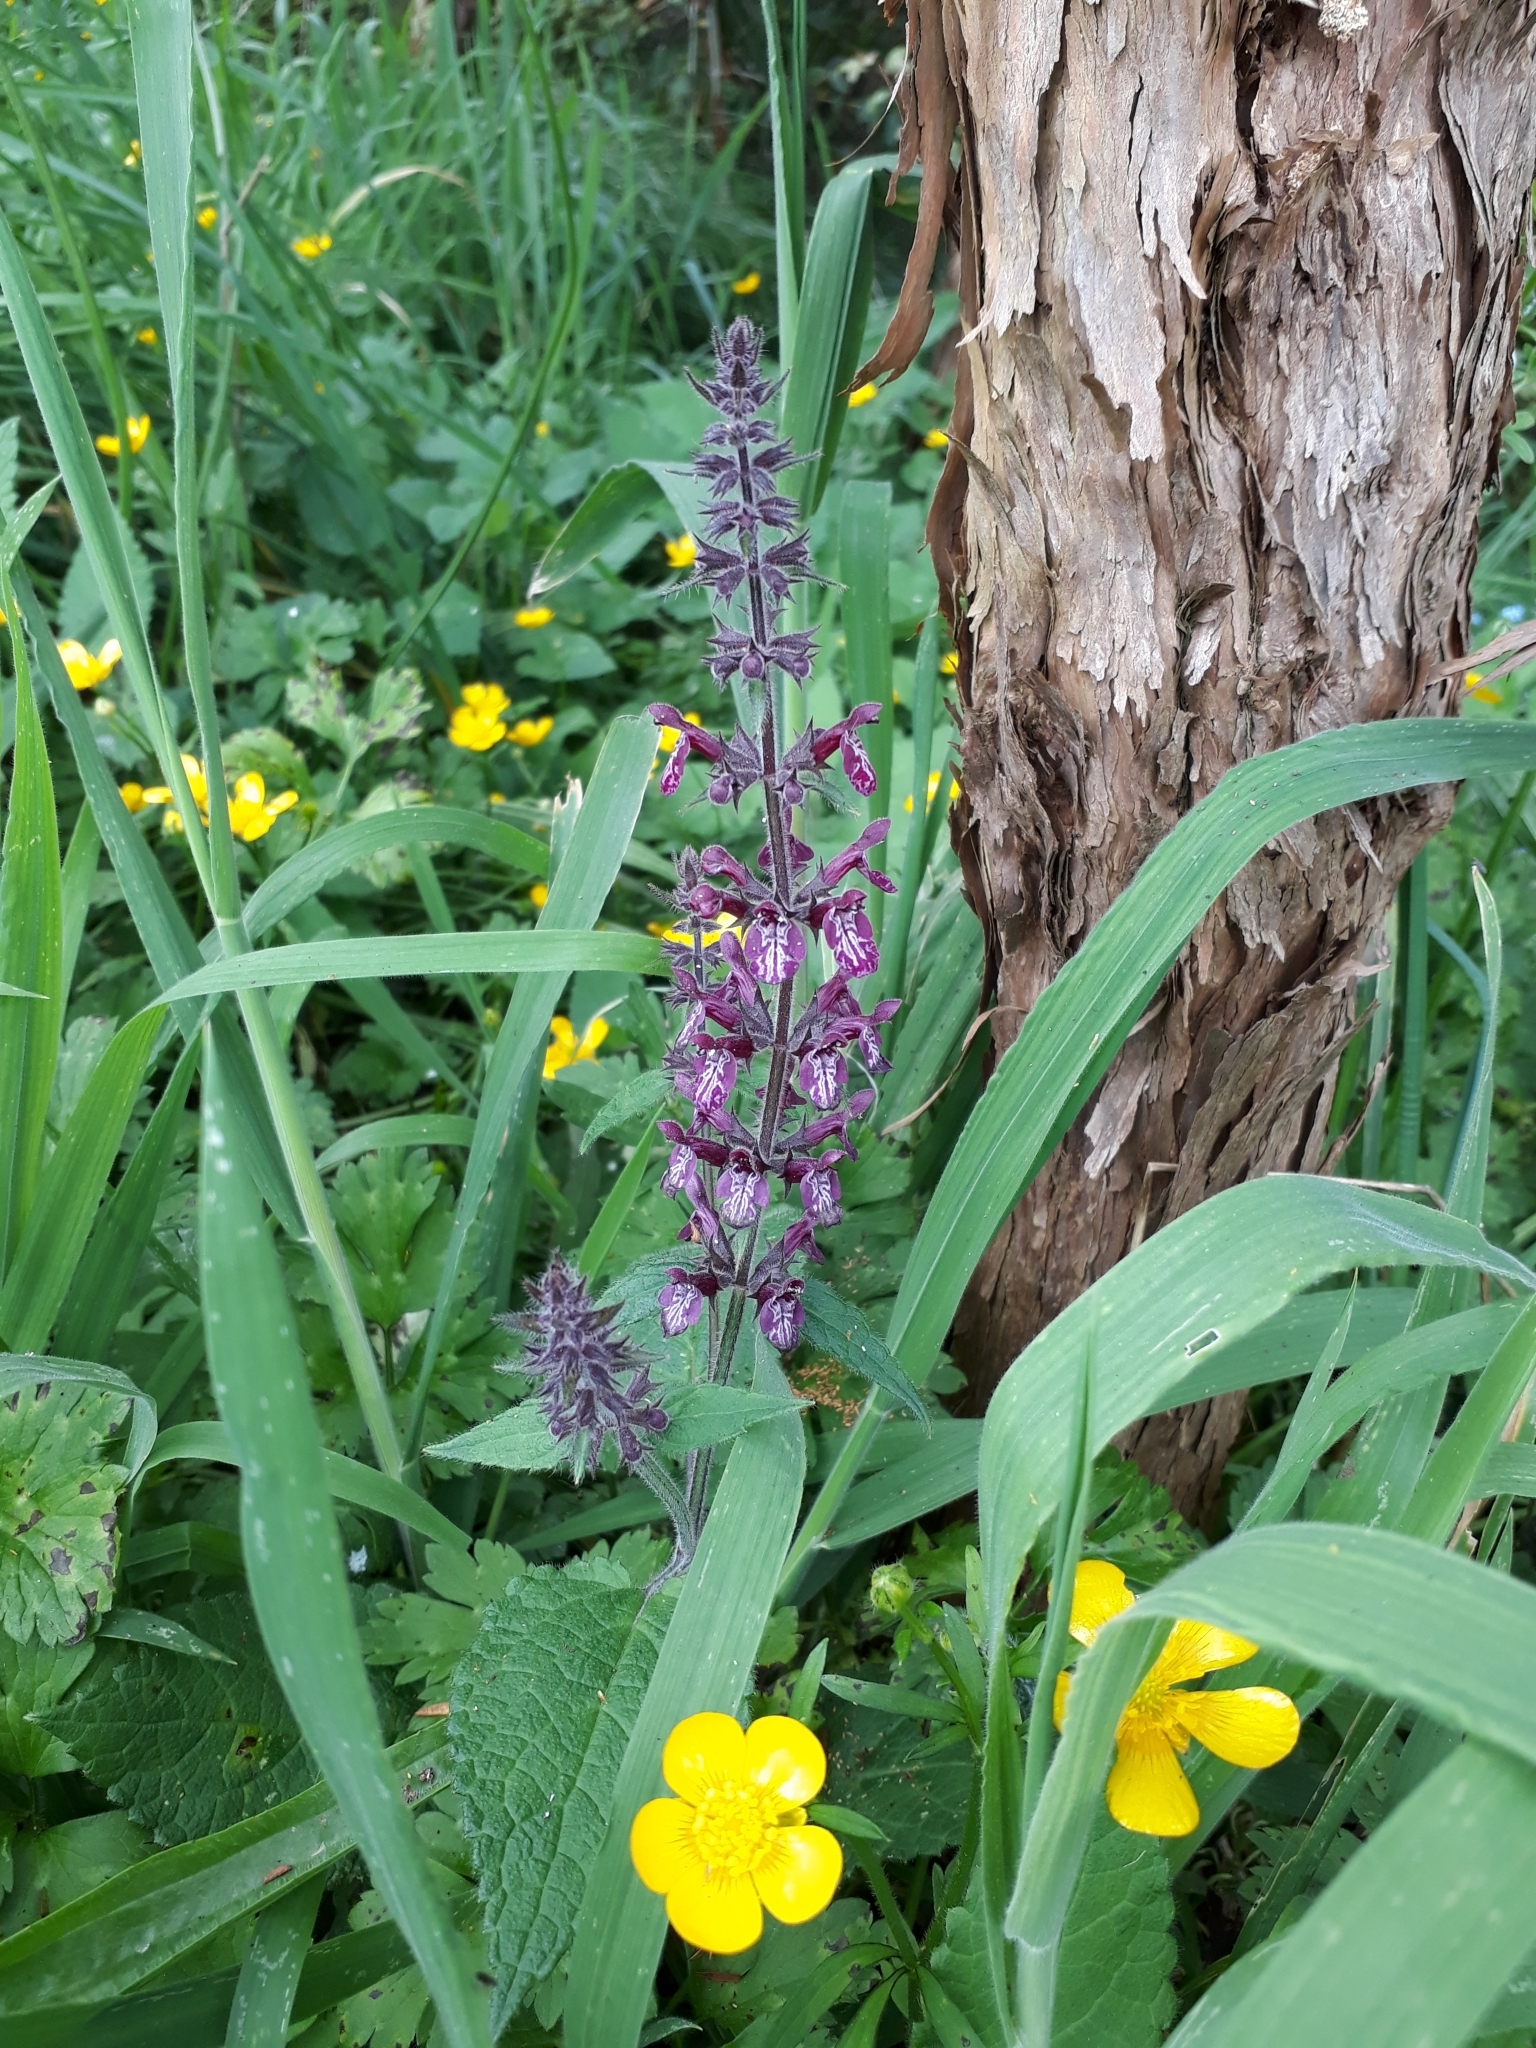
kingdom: Plantae
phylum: Tracheophyta
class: Magnoliopsida
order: Lamiales
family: Lamiaceae
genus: Stachys
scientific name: Stachys sylvatica
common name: Hedge woundwort
